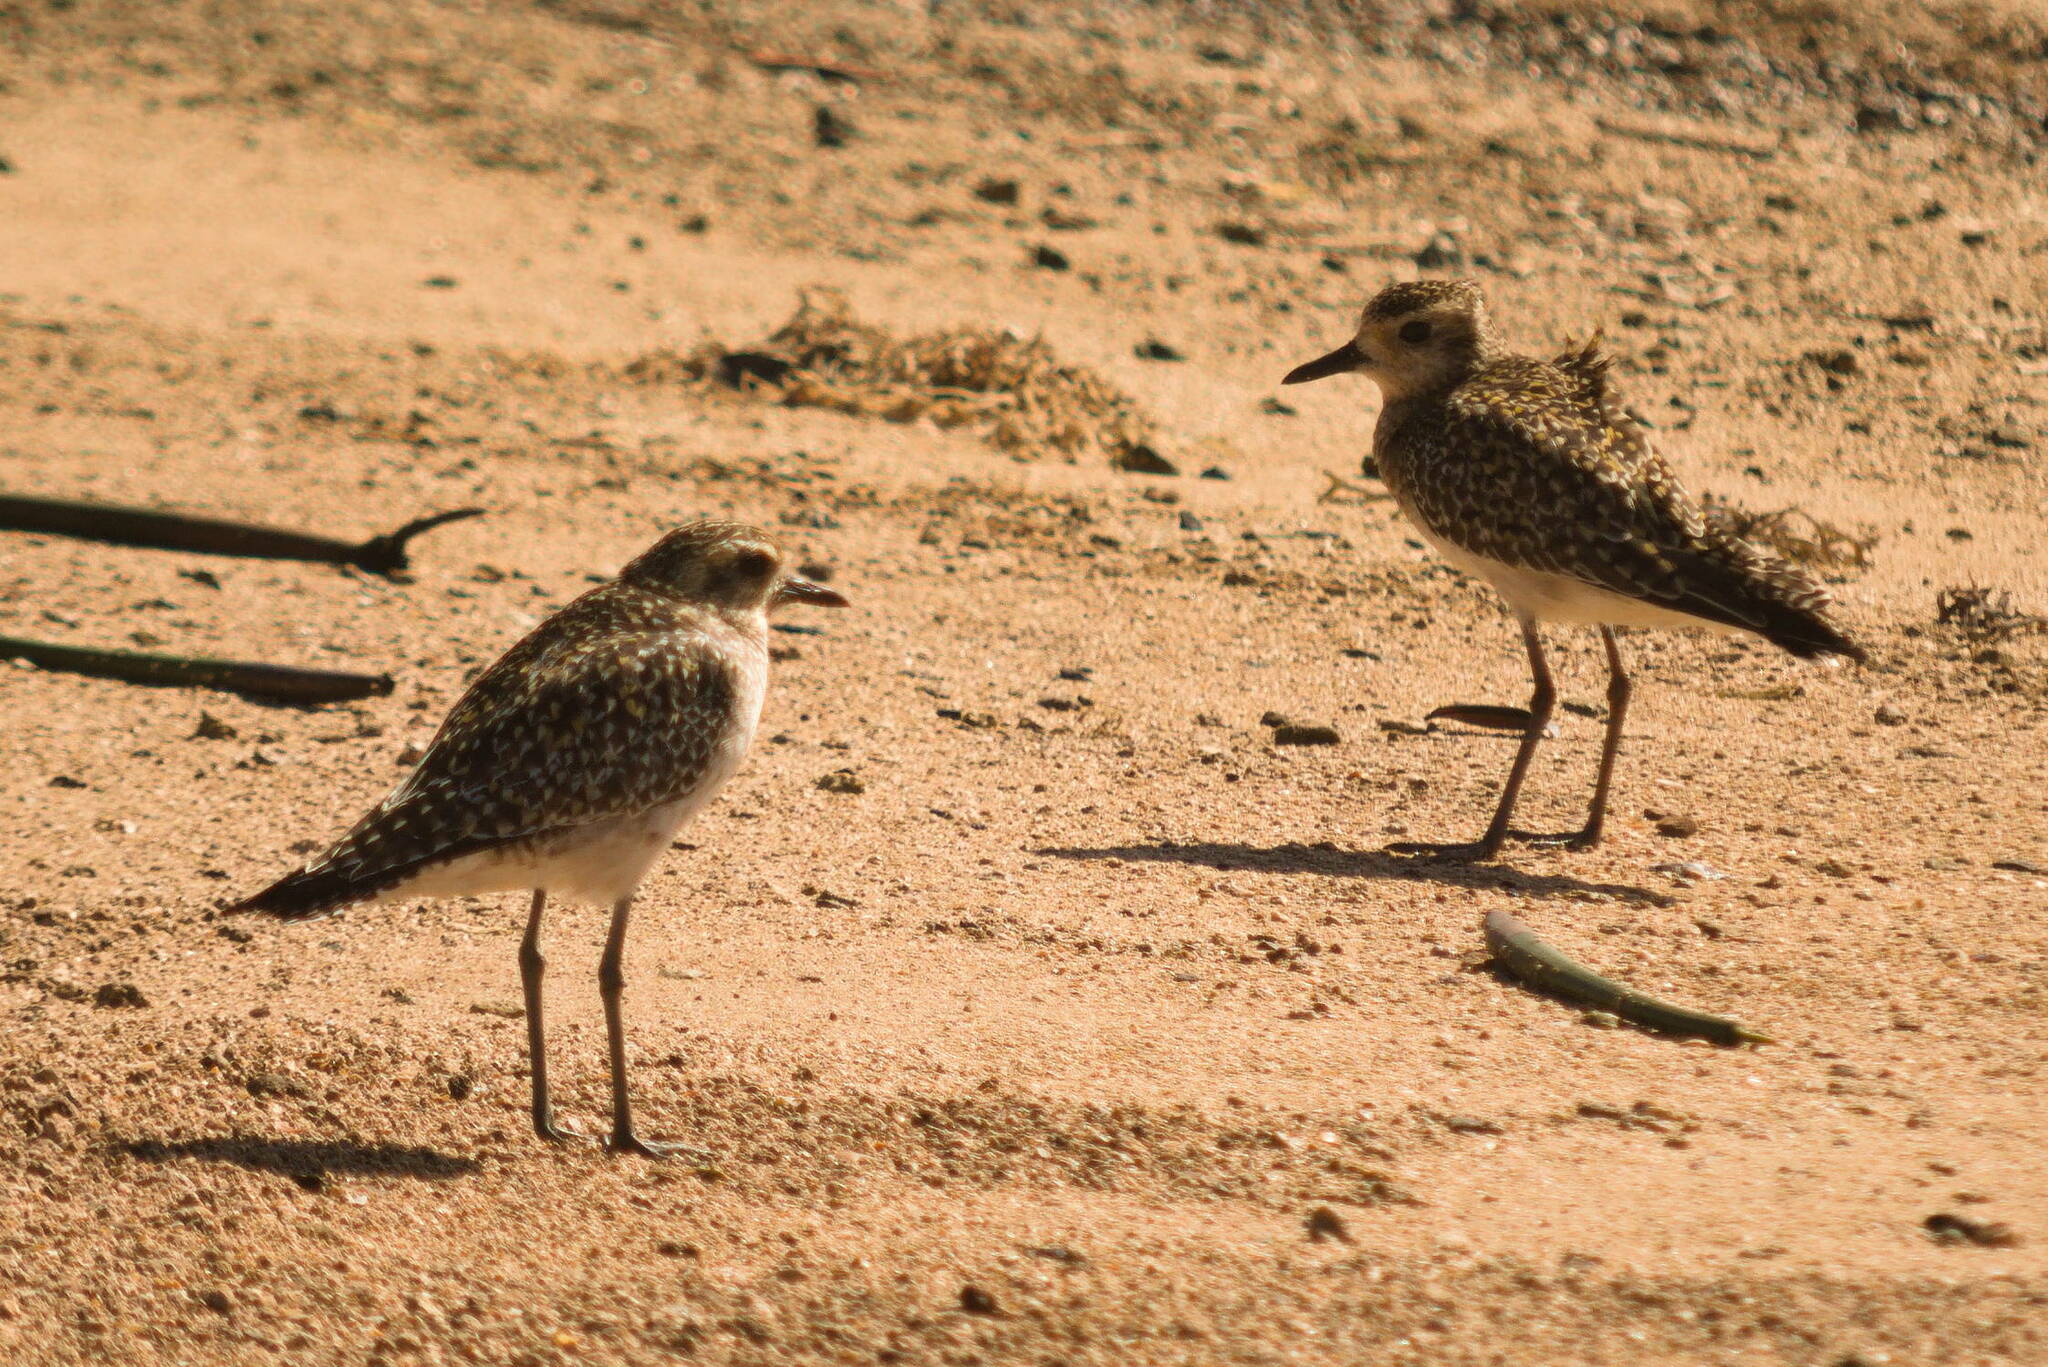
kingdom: Animalia
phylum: Chordata
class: Aves
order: Charadriiformes
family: Charadriidae
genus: Pluvialis
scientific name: Pluvialis fulva
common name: Pacific golden plover
